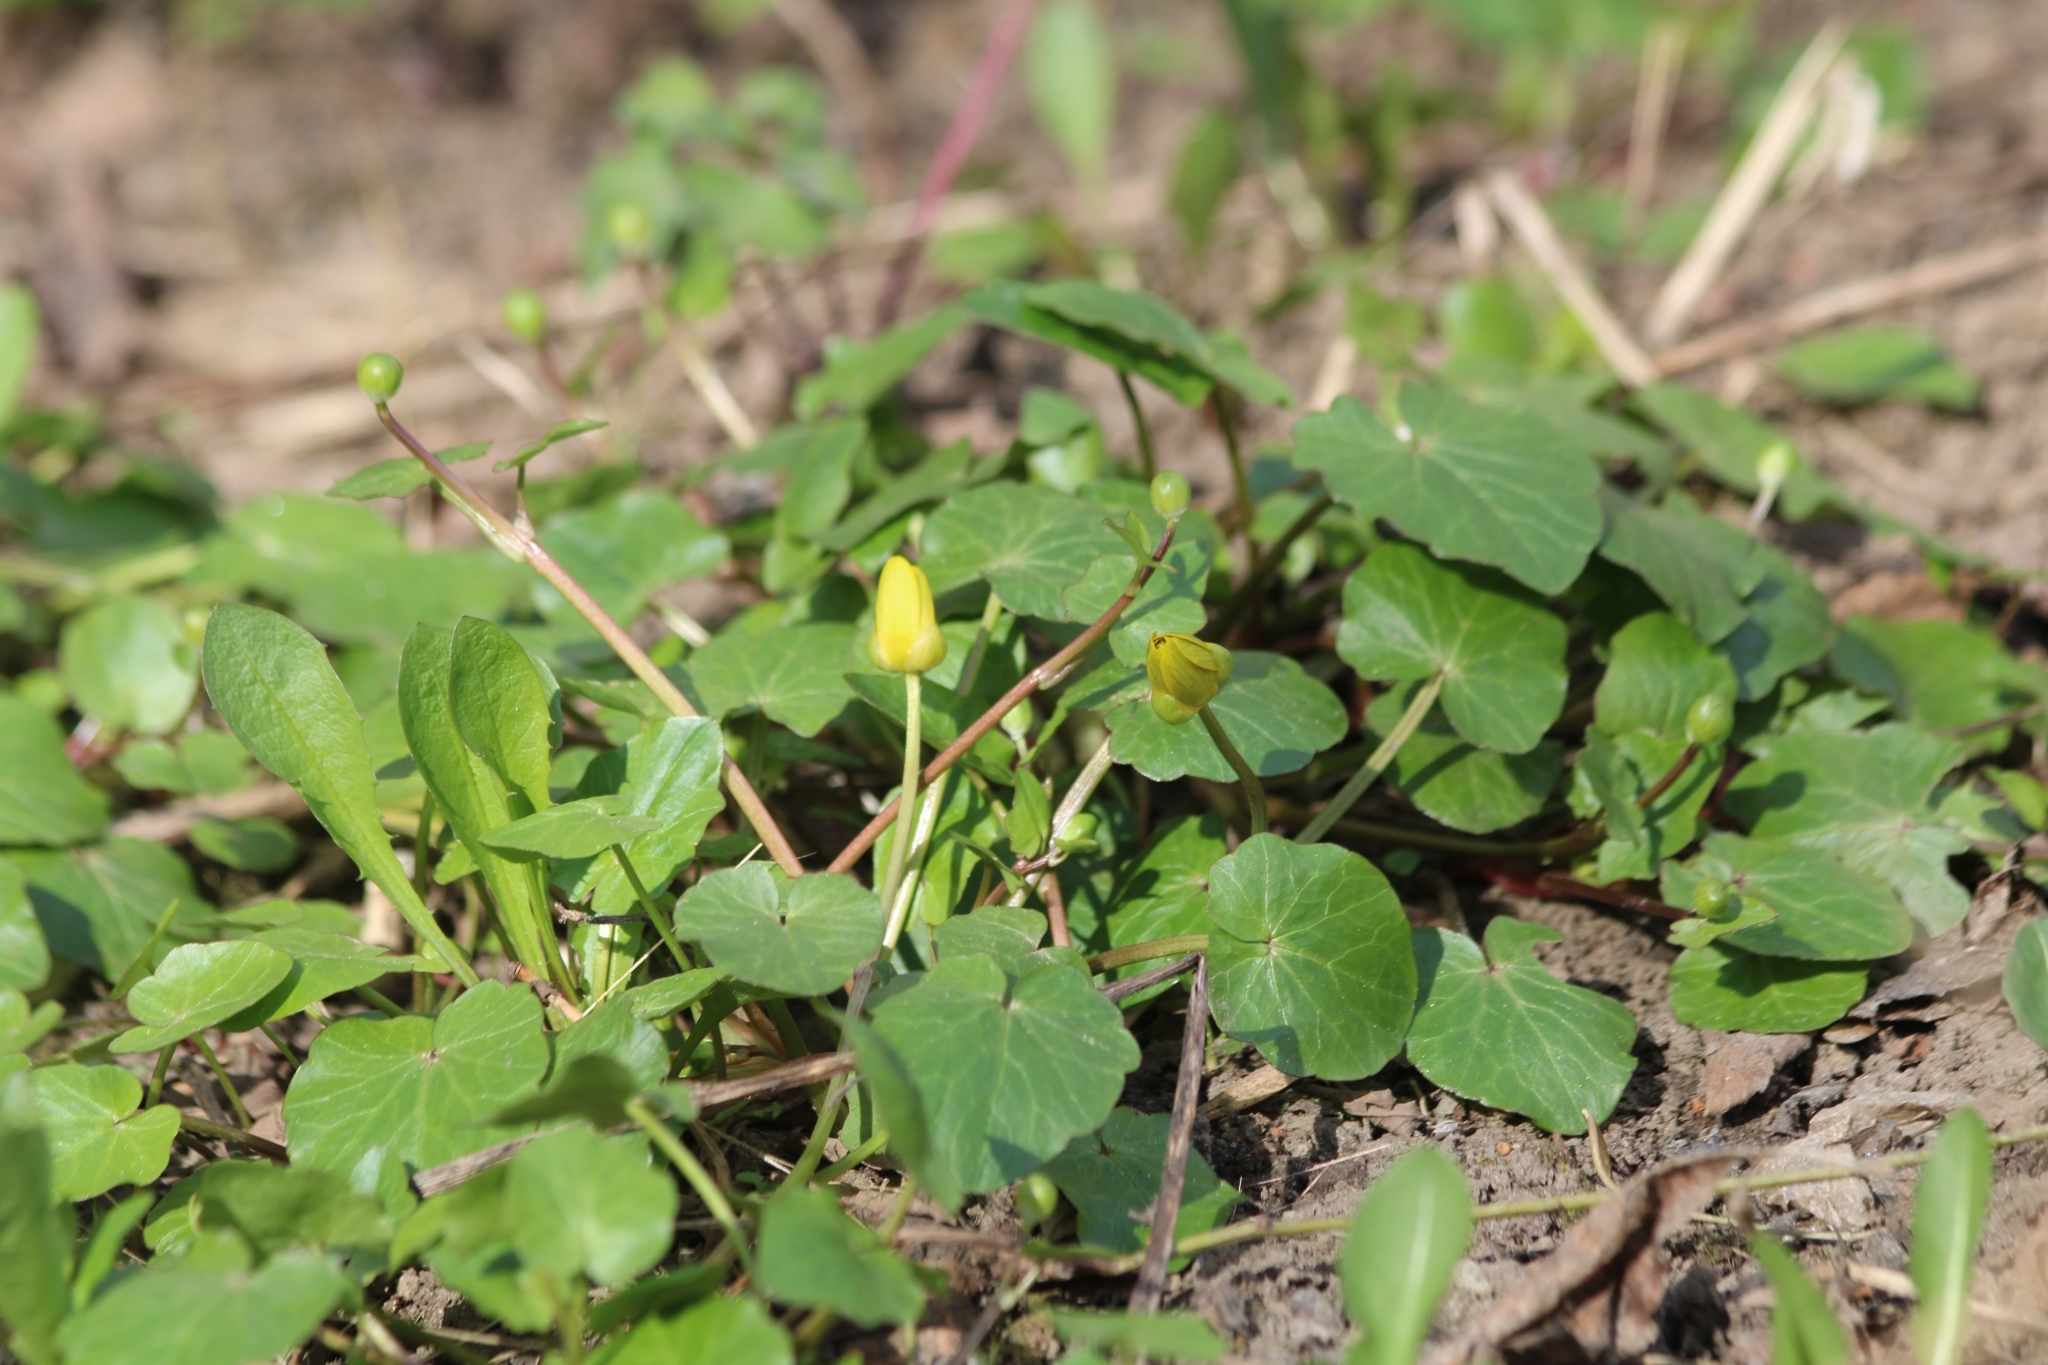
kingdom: Plantae
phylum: Tracheophyta
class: Magnoliopsida
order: Ranunculales
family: Ranunculaceae
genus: Ficaria
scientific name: Ficaria verna
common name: Lesser celandine
